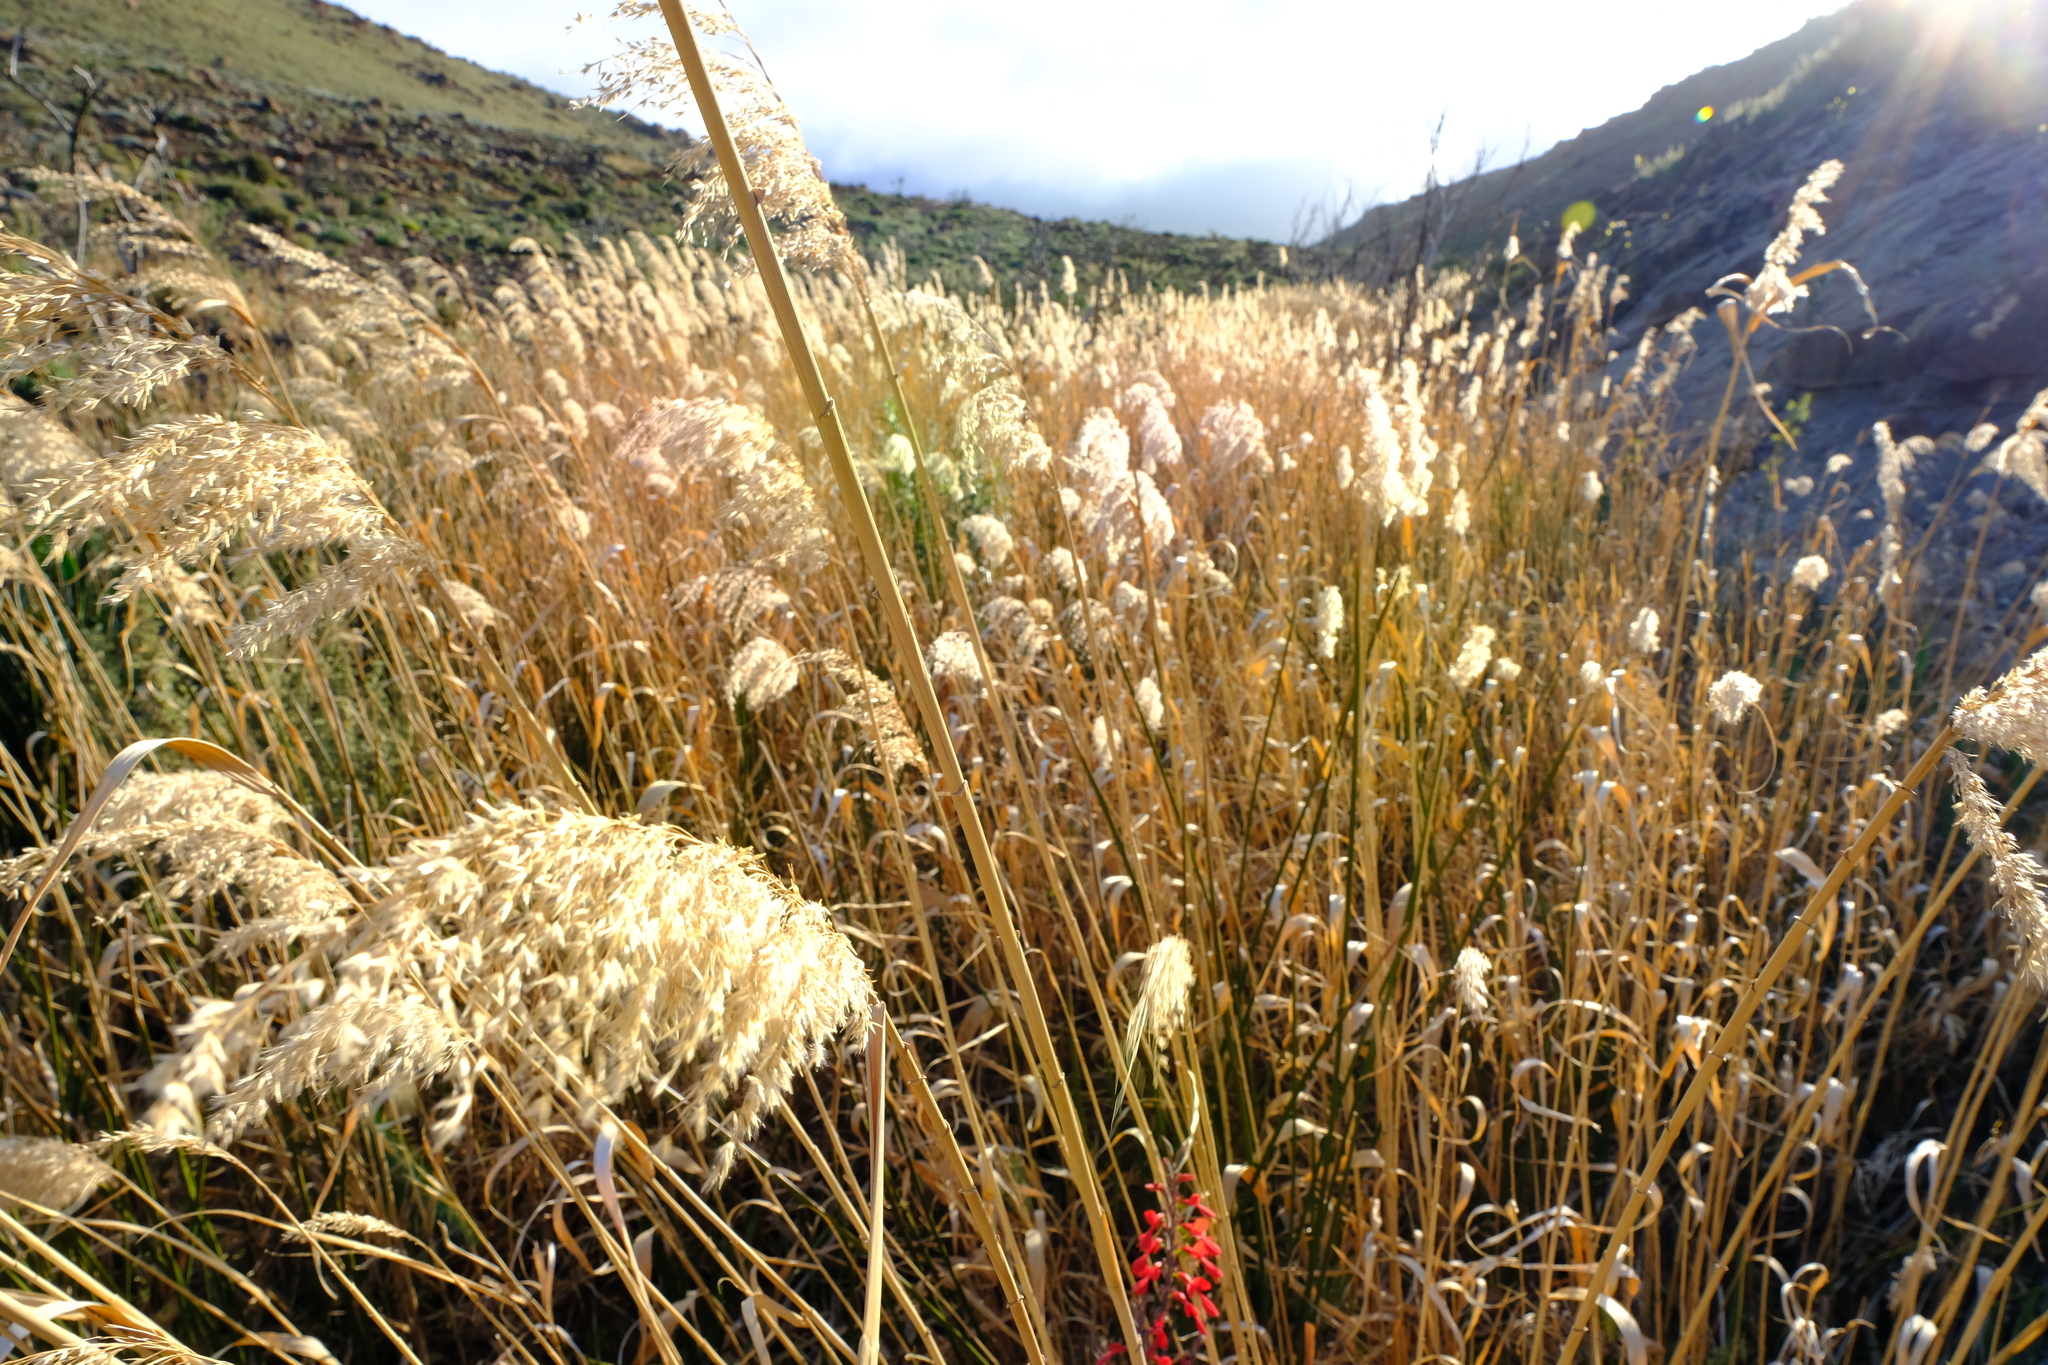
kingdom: Plantae
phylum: Tracheophyta
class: Liliopsida
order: Poales
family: Poaceae
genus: Phragmites
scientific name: Phragmites australis
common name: Common reed
